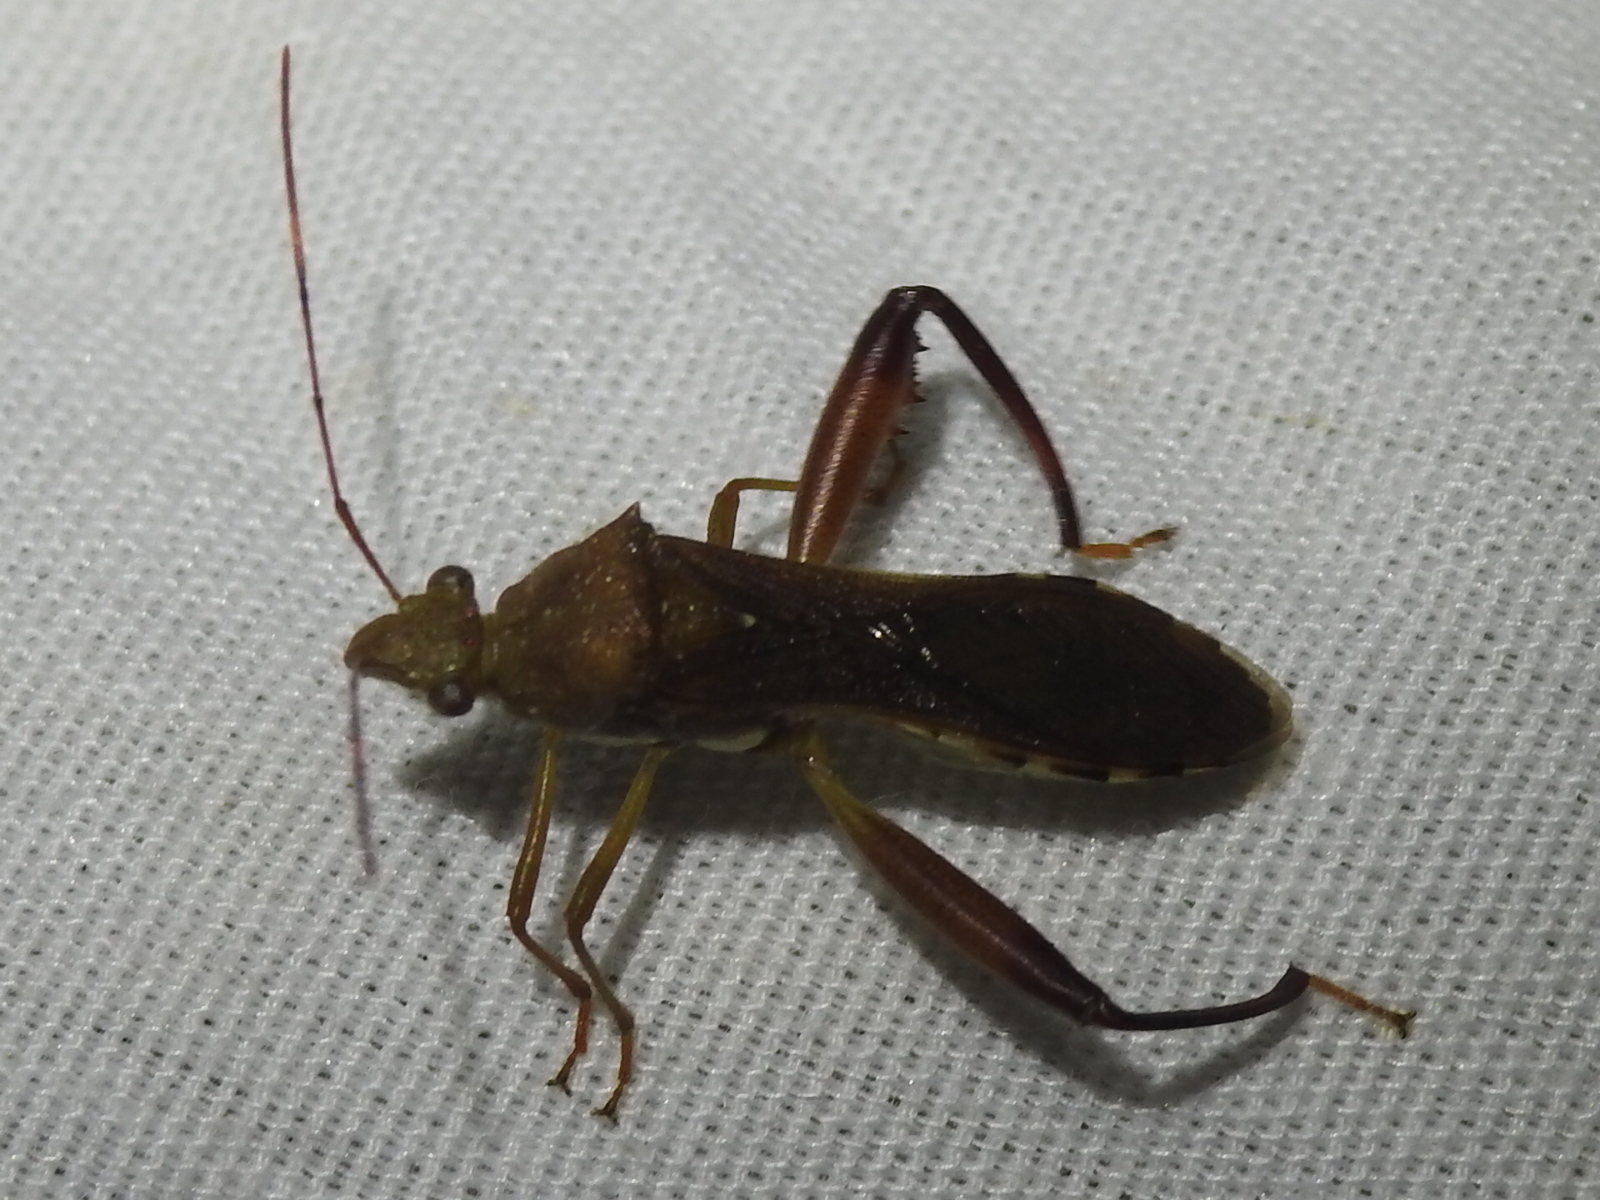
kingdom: Animalia
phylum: Arthropoda
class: Insecta
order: Hemiptera
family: Alydidae
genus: Hyalymenus
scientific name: Hyalymenus tarsatus
